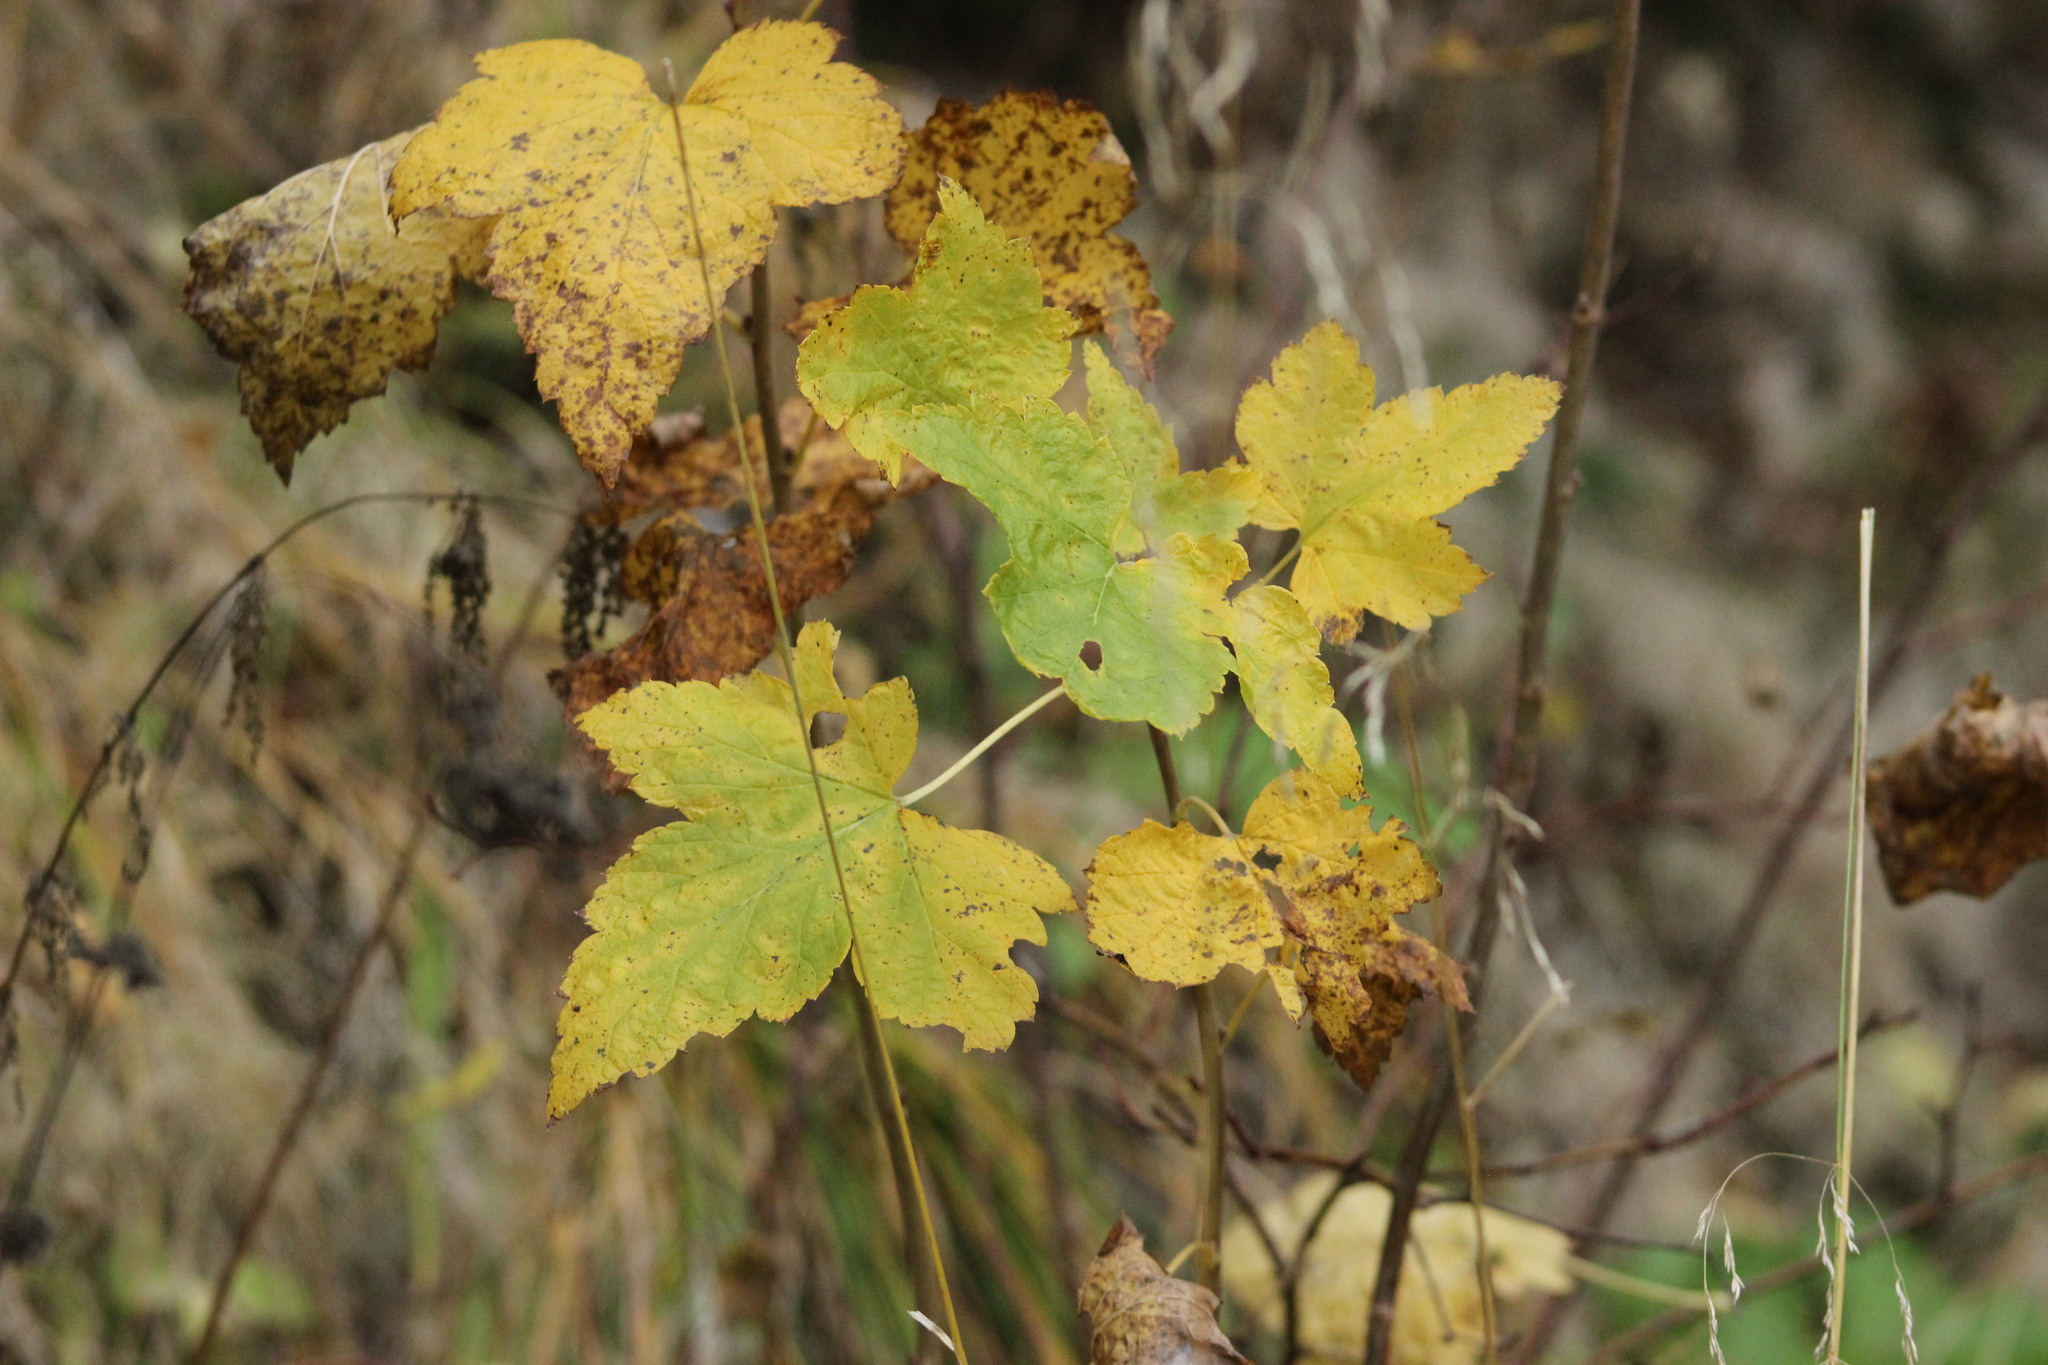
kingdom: Plantae
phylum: Tracheophyta
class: Magnoliopsida
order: Saxifragales
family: Grossulariaceae
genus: Ribes
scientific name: Ribes nigrum
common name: Black currant
